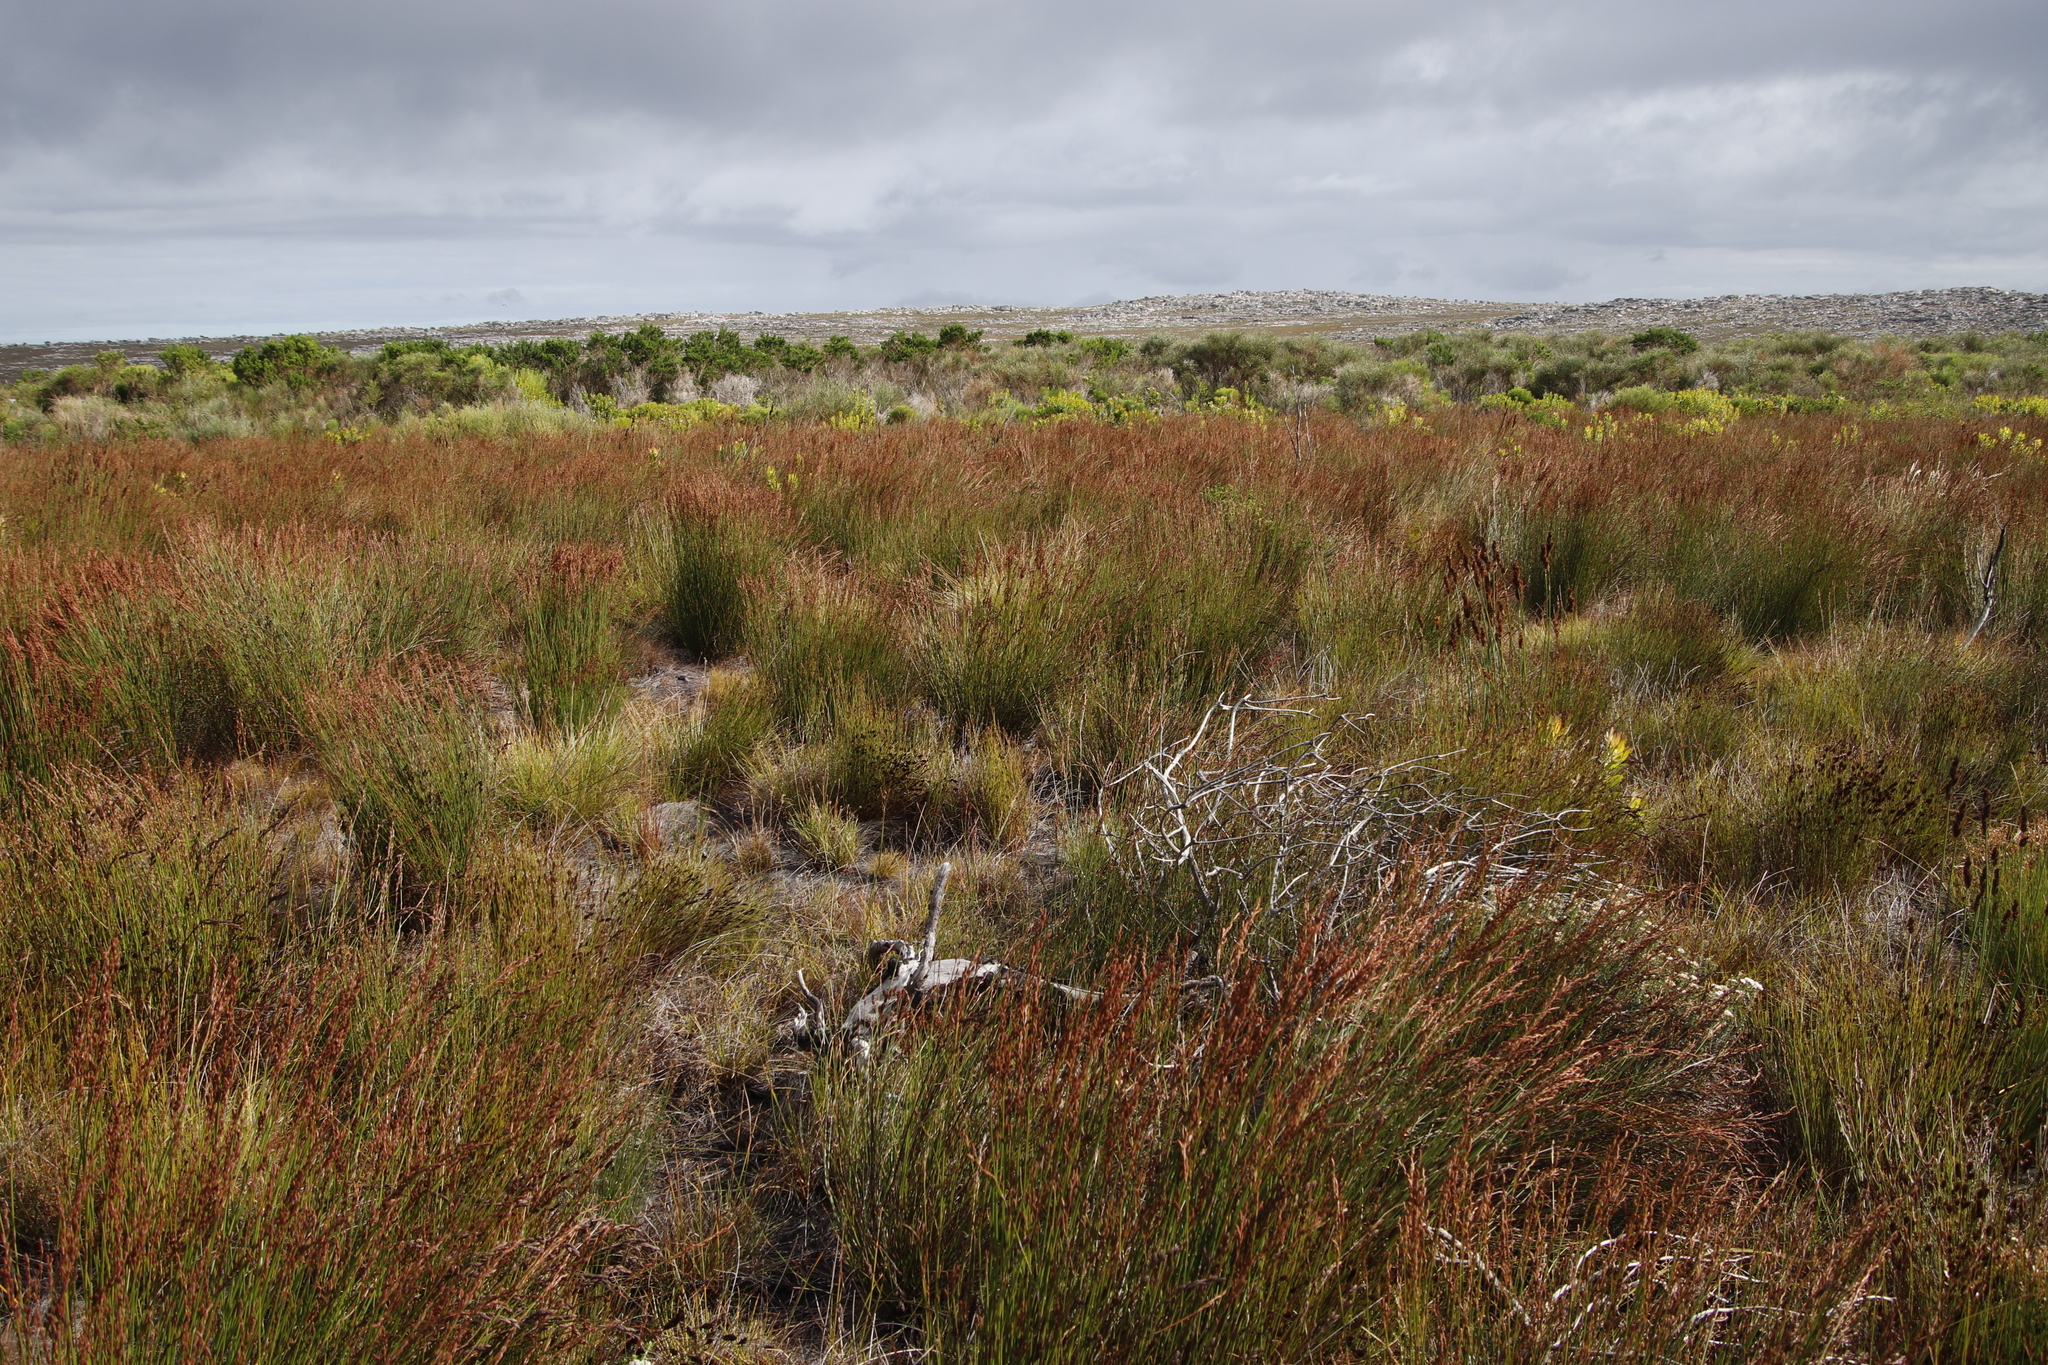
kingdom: Plantae
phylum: Tracheophyta
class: Liliopsida
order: Poales
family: Restionaceae
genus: Elegia
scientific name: Elegia cuspidata
